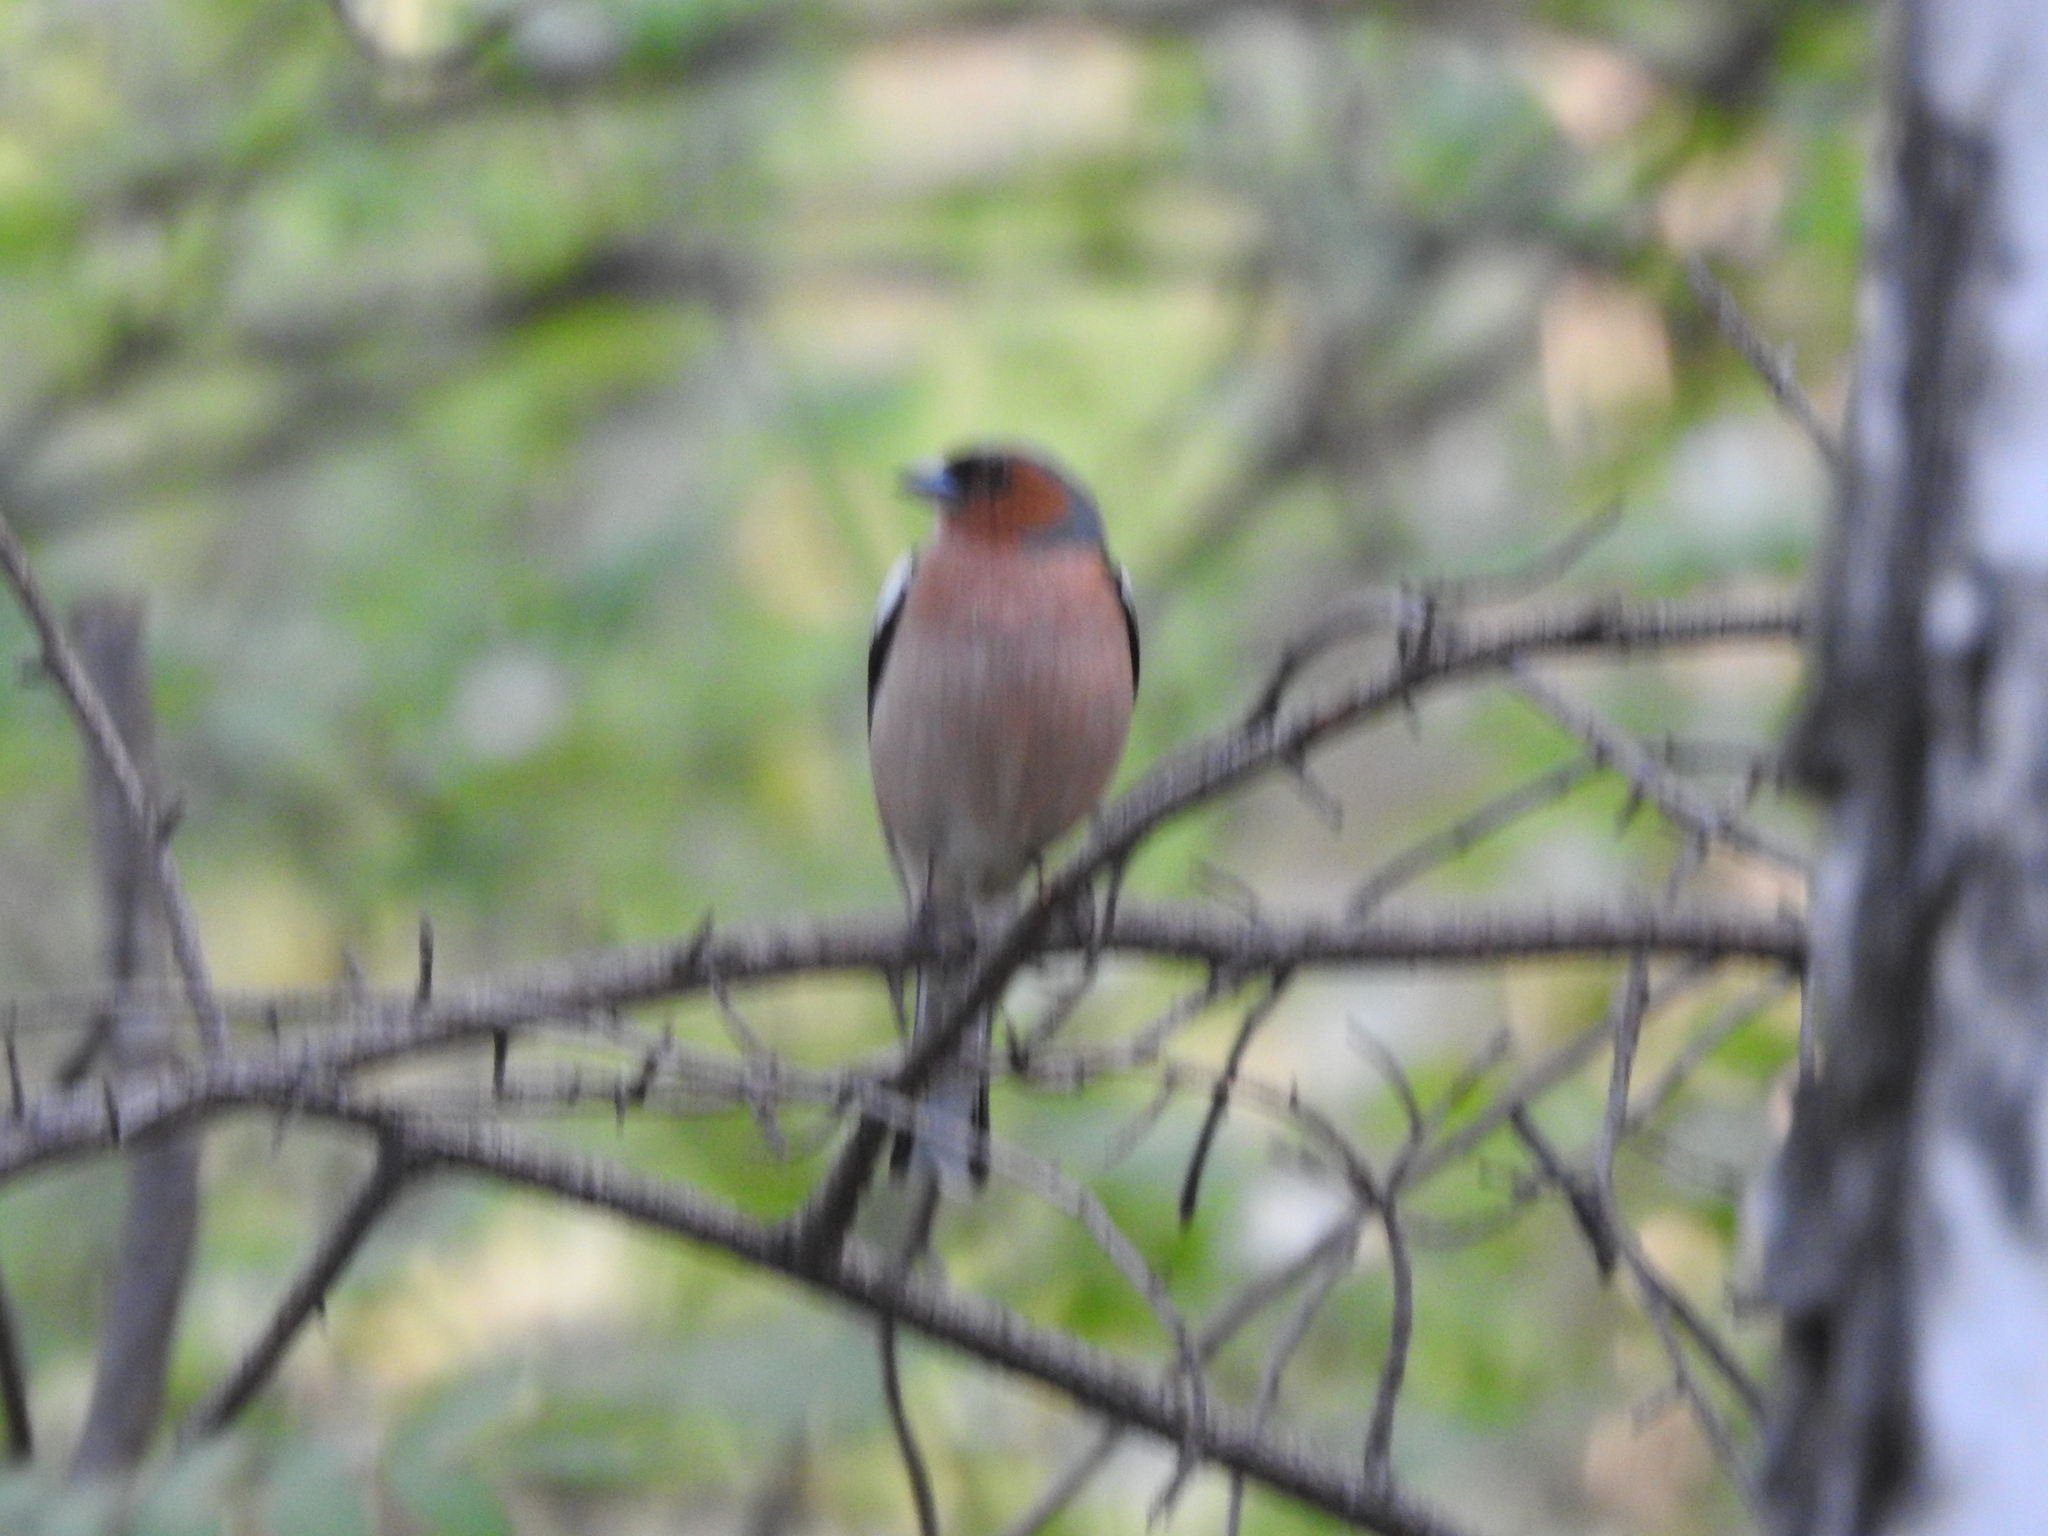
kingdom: Animalia
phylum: Chordata
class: Aves
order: Passeriformes
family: Fringillidae
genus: Fringilla
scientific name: Fringilla coelebs
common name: Common chaffinch
